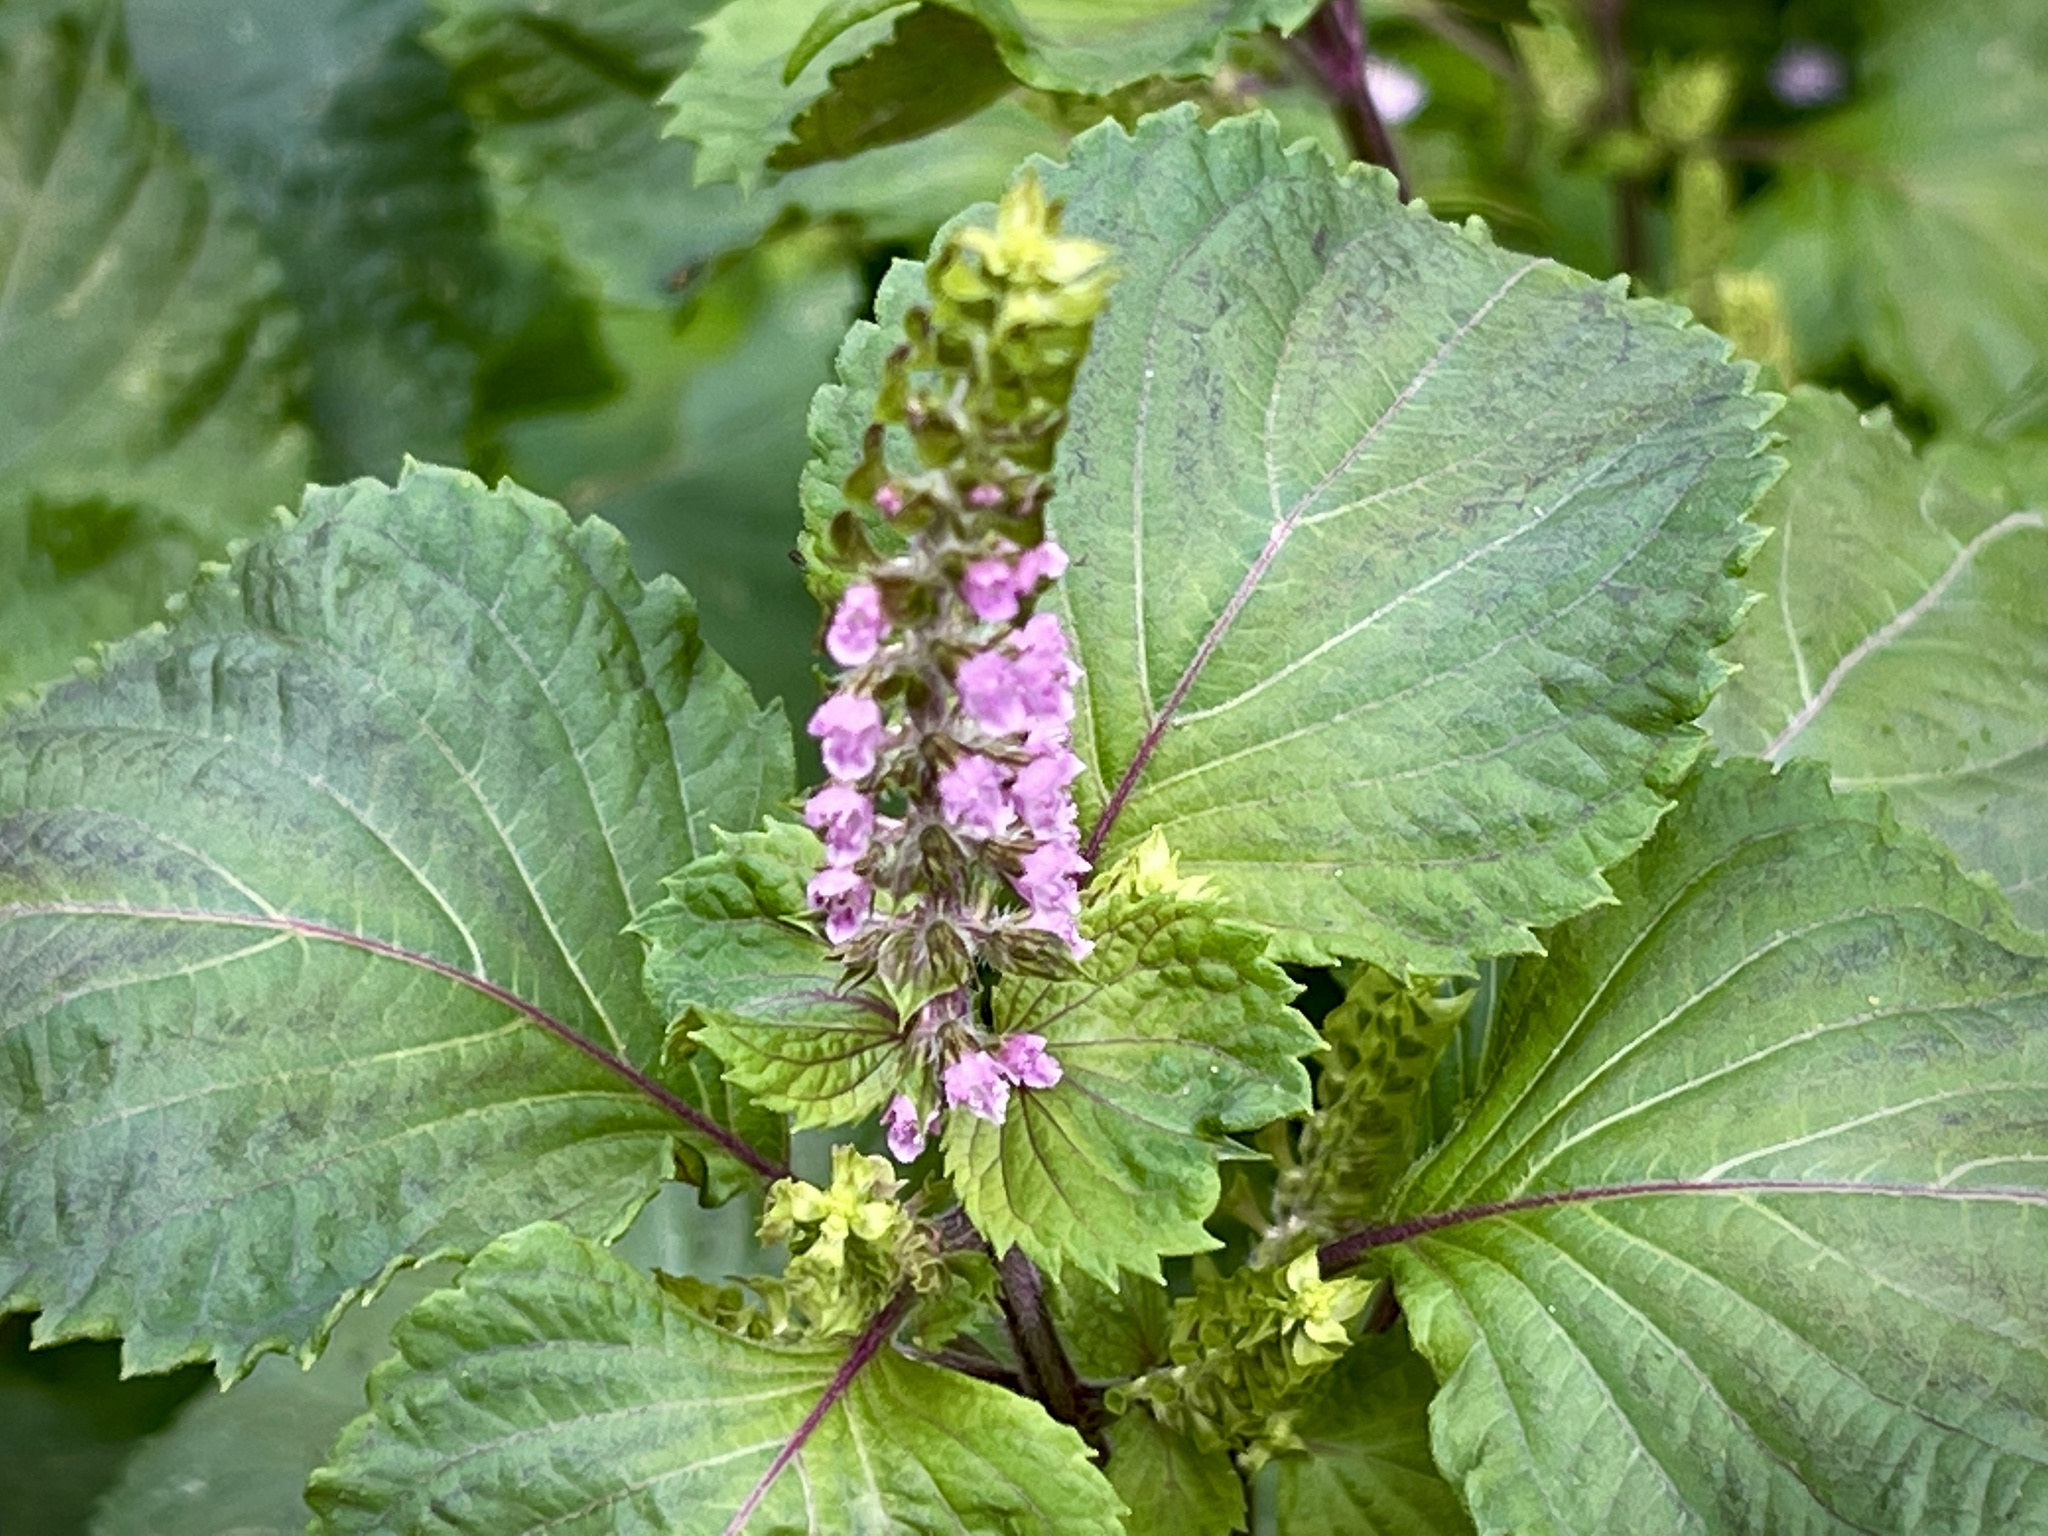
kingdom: Plantae
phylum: Tracheophyta
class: Magnoliopsida
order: Lamiales
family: Lamiaceae
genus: Perilla
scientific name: Perilla frutescens
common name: Perilla
